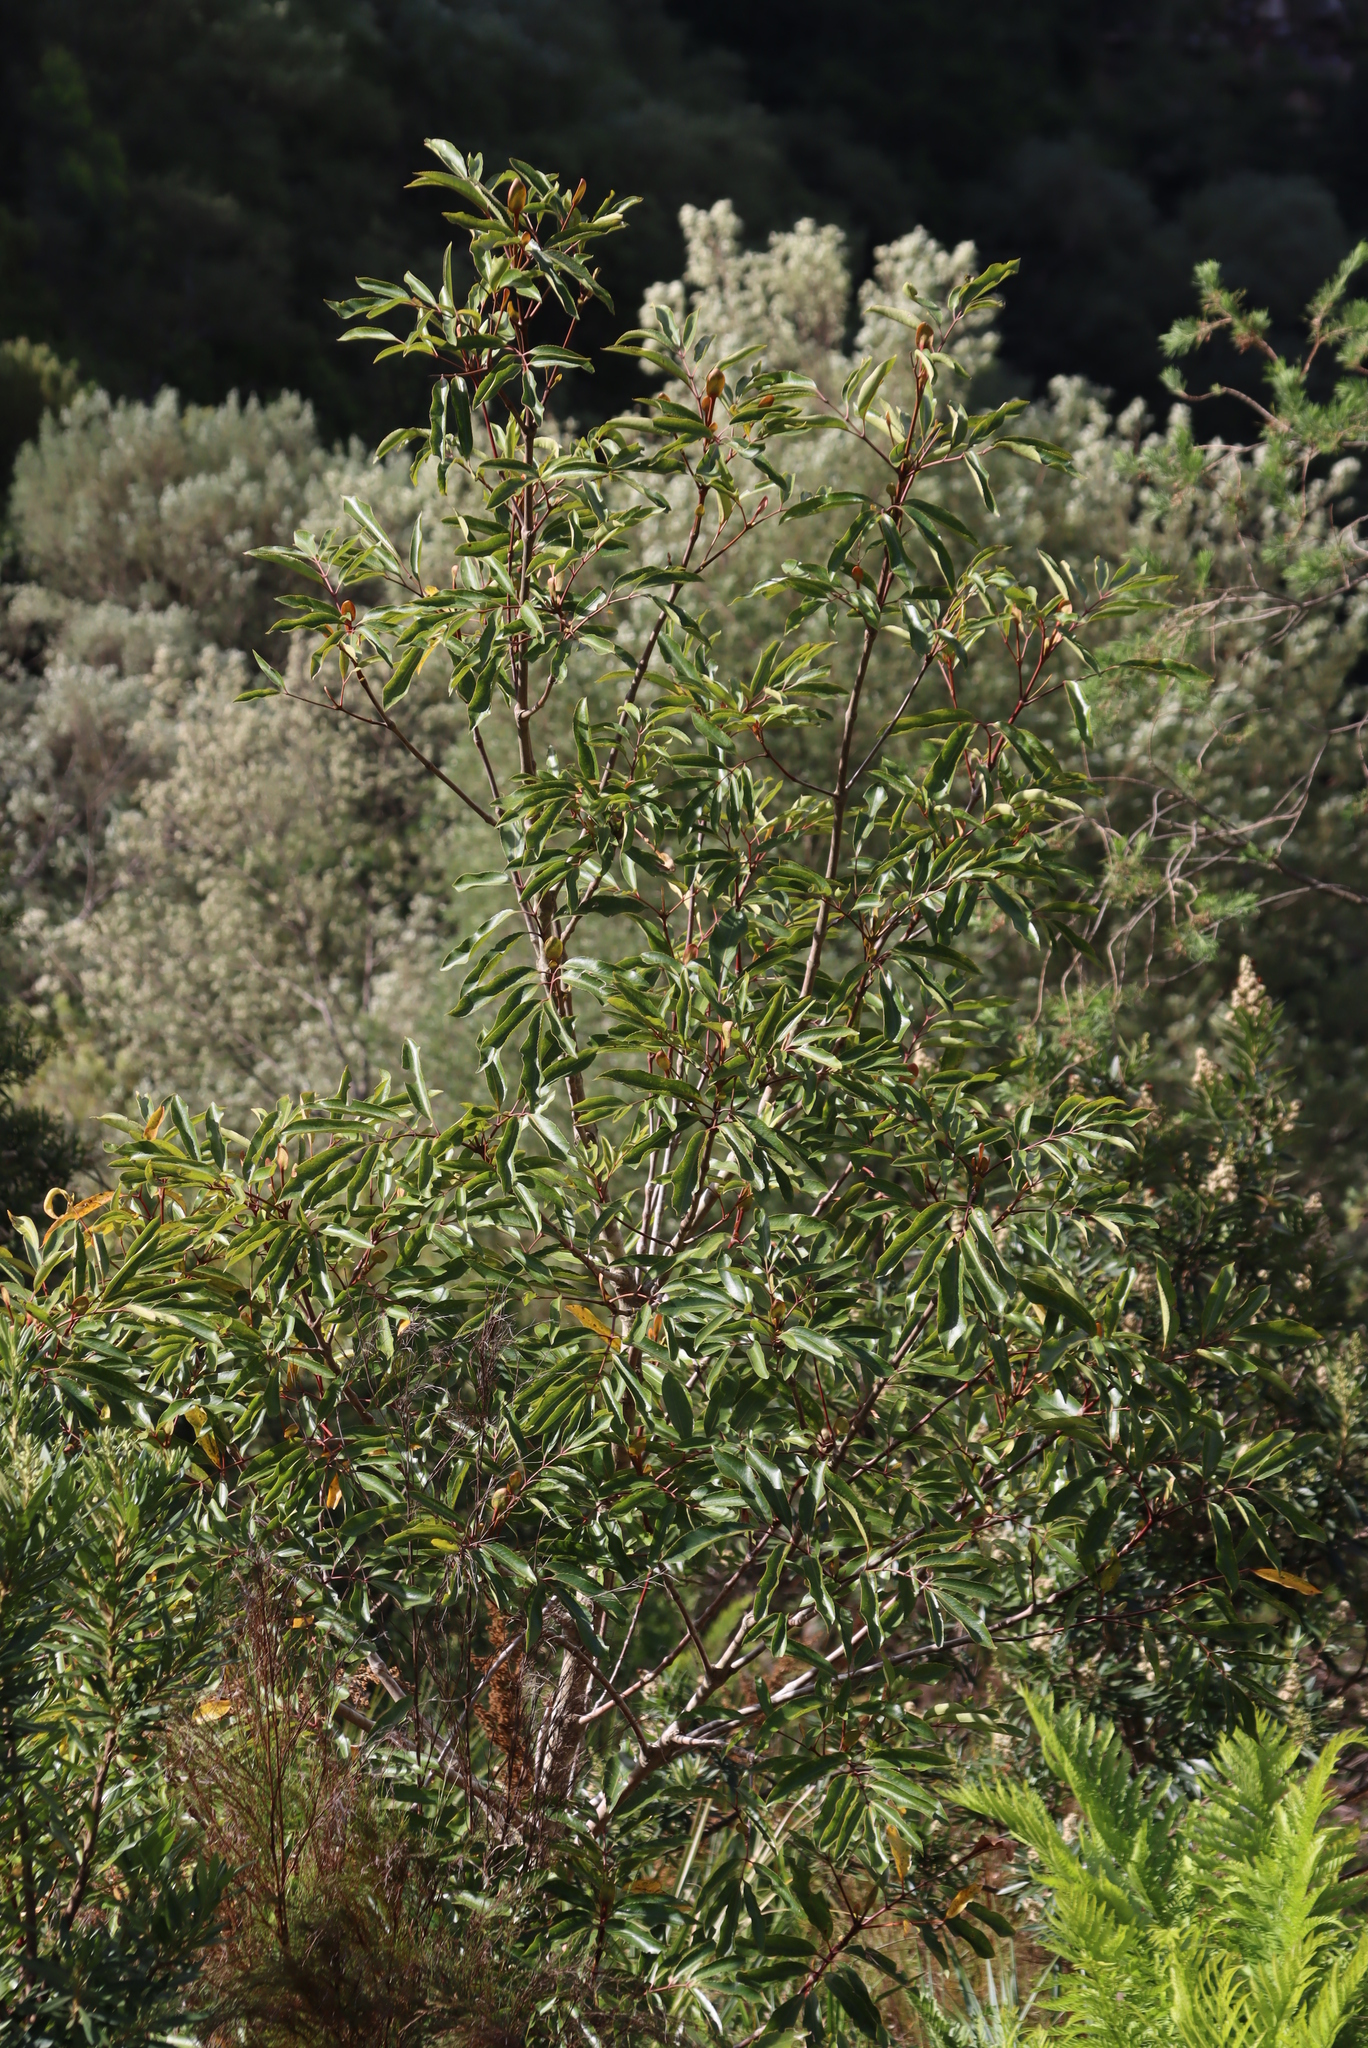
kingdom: Plantae
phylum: Tracheophyta
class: Magnoliopsida
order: Oxalidales
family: Cunoniaceae
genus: Cunonia
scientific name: Cunonia capensis
